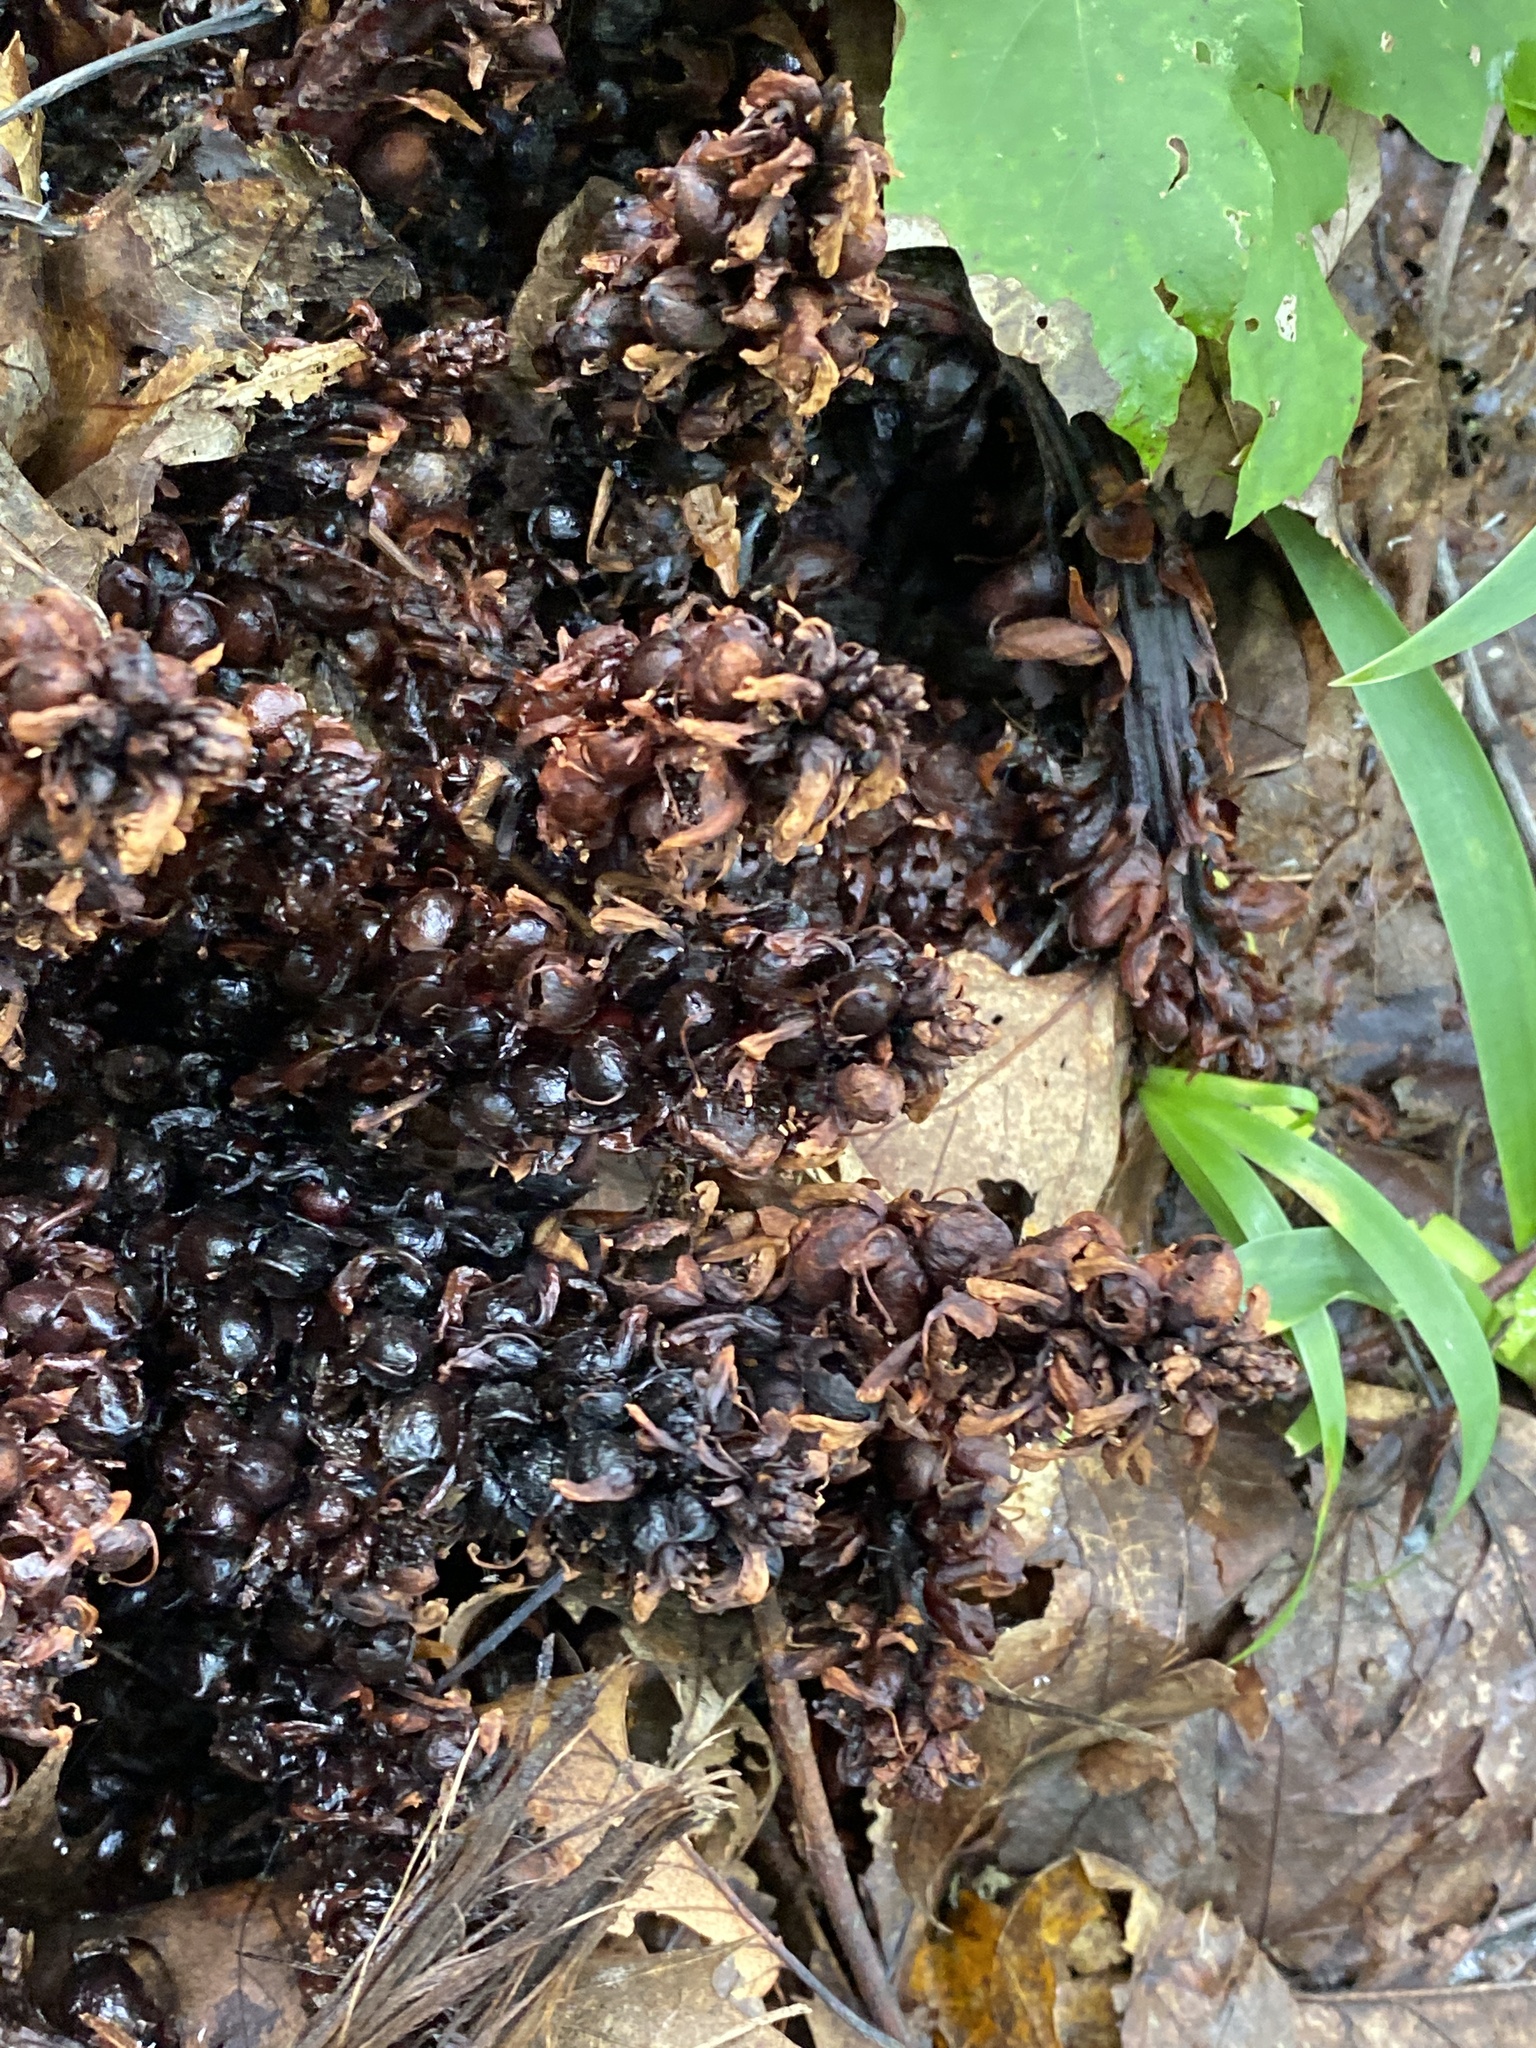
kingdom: Plantae
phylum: Tracheophyta
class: Magnoliopsida
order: Lamiales
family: Orobanchaceae
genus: Conopholis
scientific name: Conopholis americana
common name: American cancer-root
